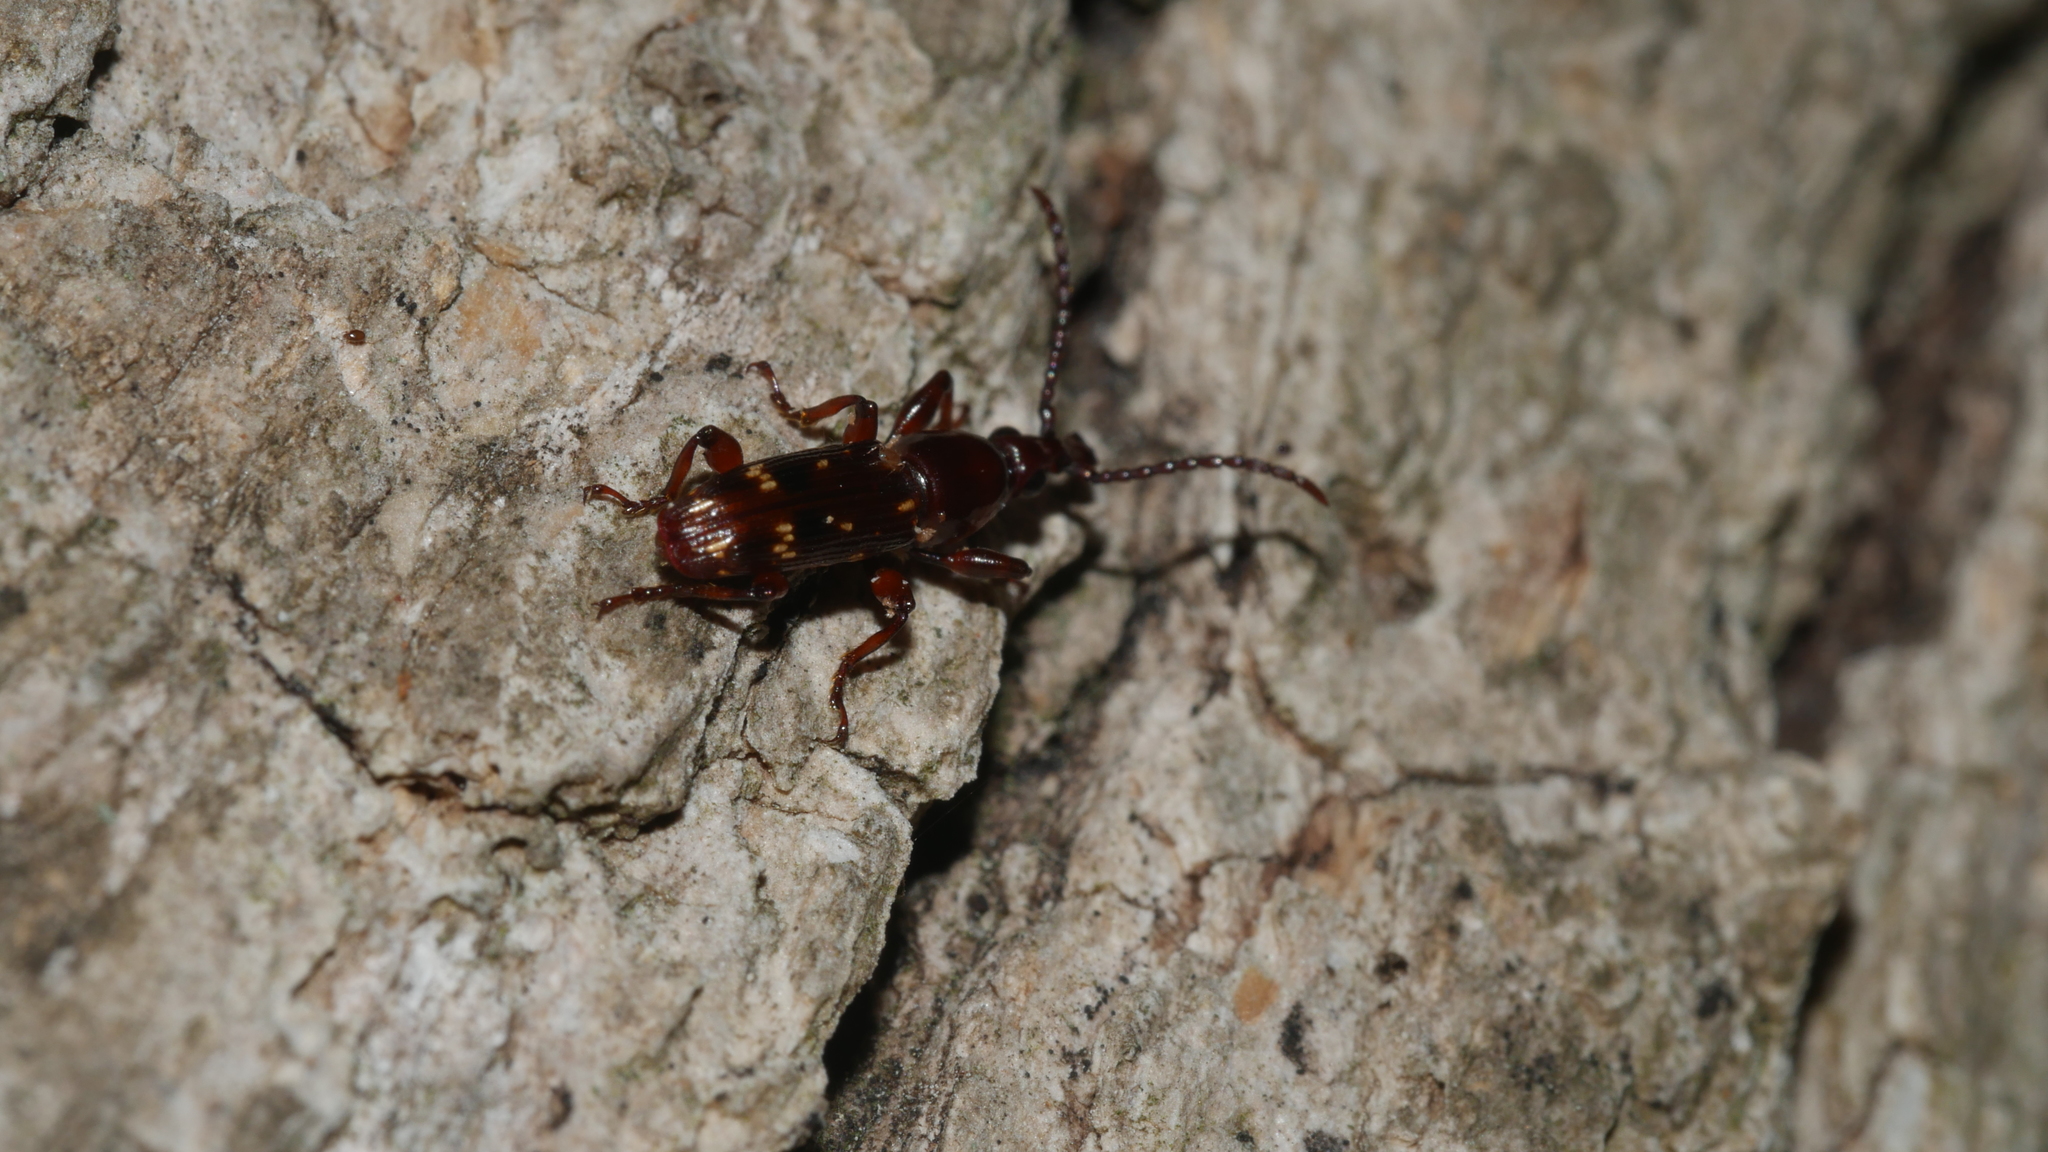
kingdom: Animalia
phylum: Arthropoda
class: Insecta
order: Coleoptera
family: Brentidae
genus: Arrenodes
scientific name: Arrenodes minutus
